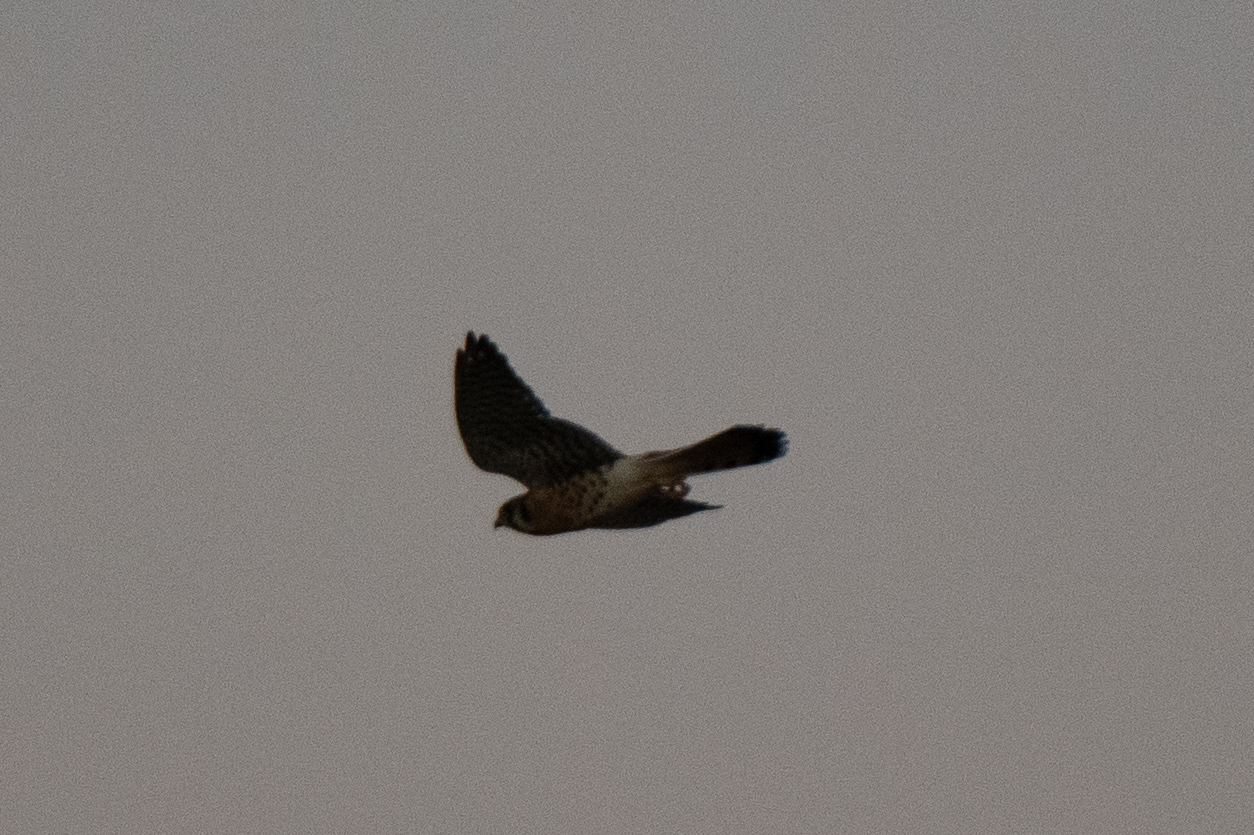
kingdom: Animalia
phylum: Chordata
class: Aves
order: Falconiformes
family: Falconidae
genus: Falco
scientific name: Falco sparverius
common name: American kestrel
